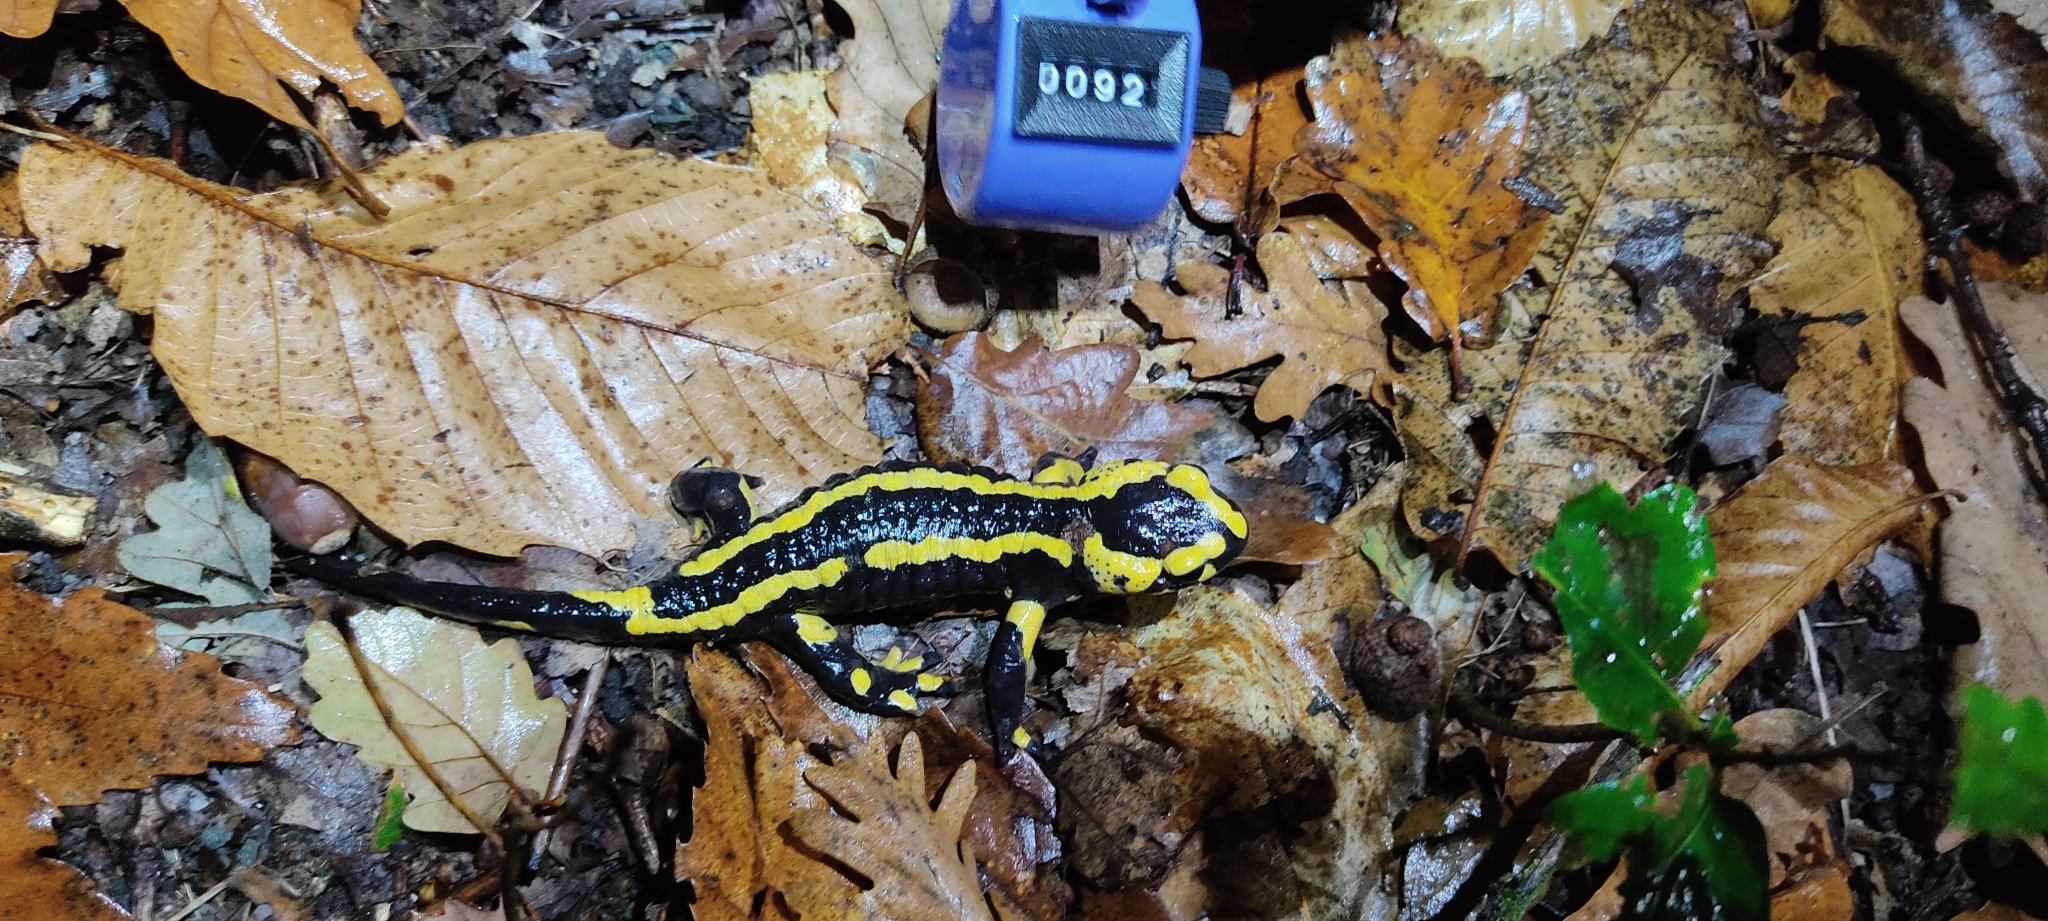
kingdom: Animalia
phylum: Chordata
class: Amphibia
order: Caudata
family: Salamandridae
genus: Salamandra
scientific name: Salamandra salamandra
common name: Fire salamander
